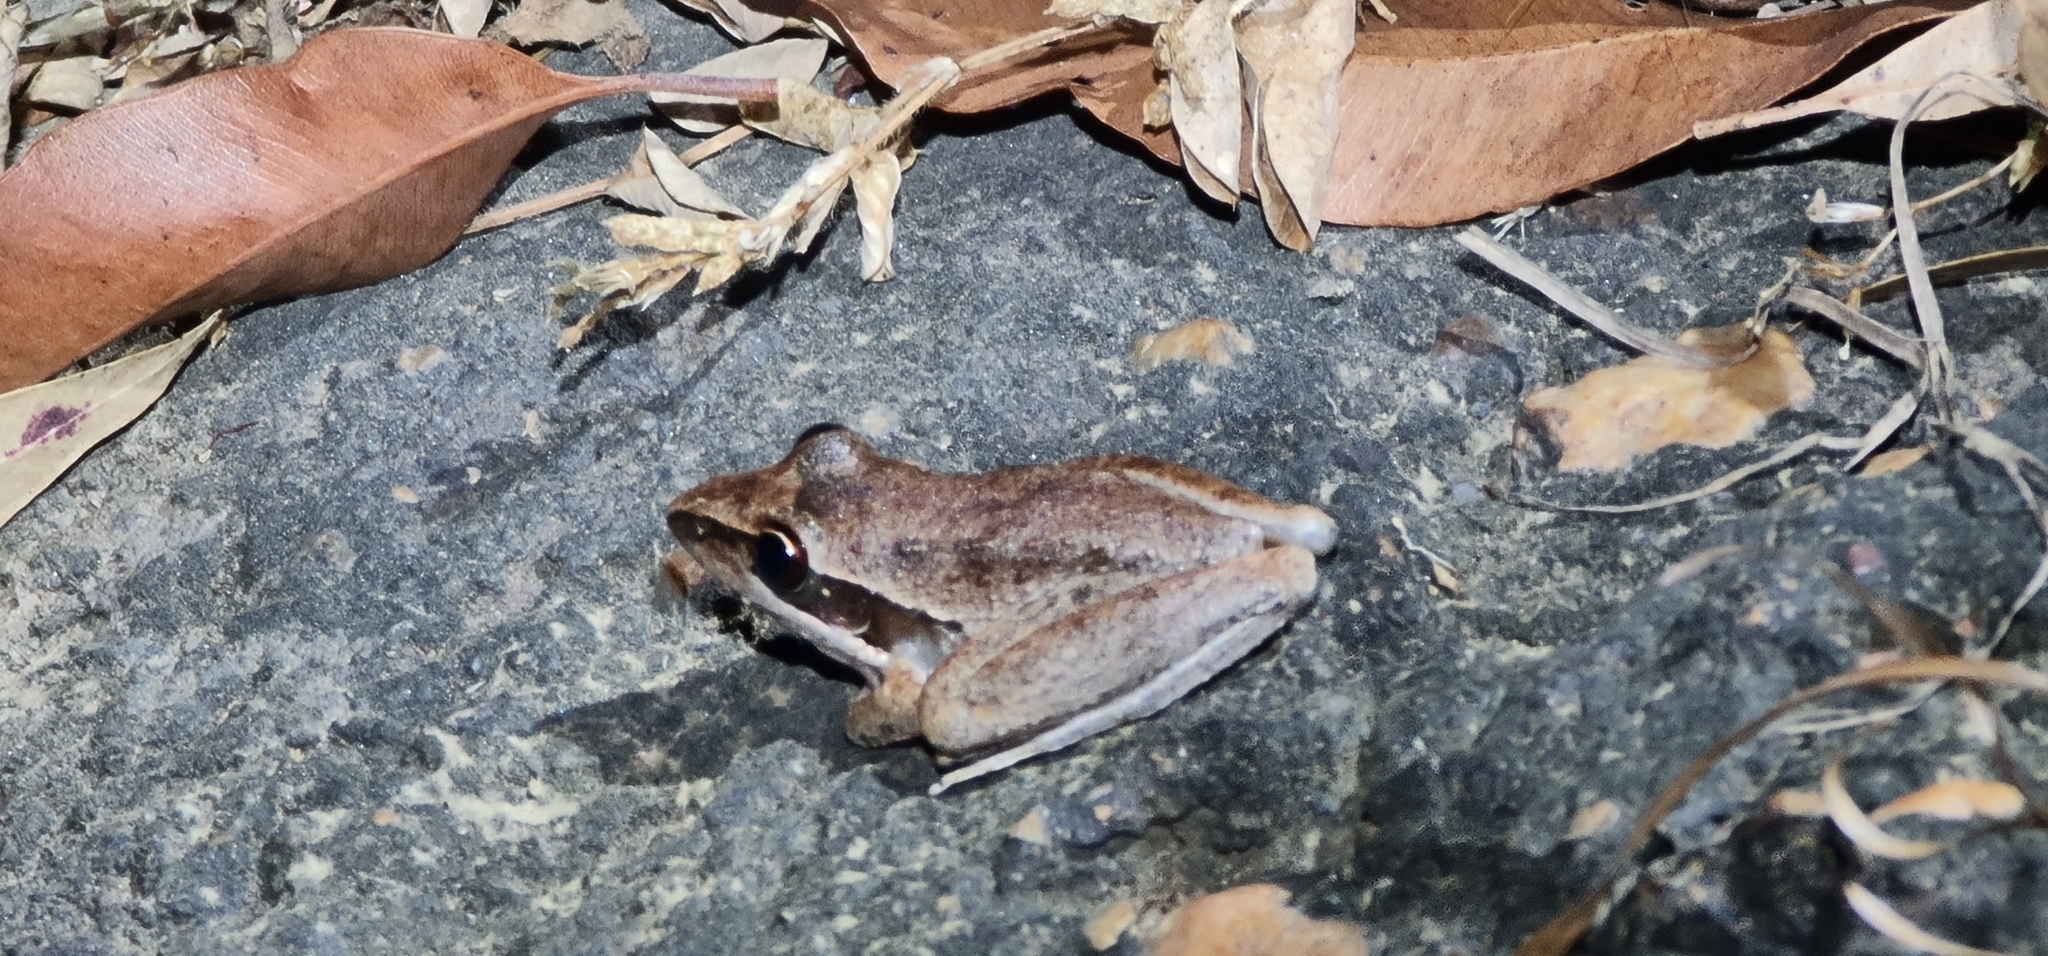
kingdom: Animalia
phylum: Chordata
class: Amphibia
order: Anura
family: Pelodryadidae
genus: Litoria
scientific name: Litoria watjulumensis
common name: Wotjulum frog
